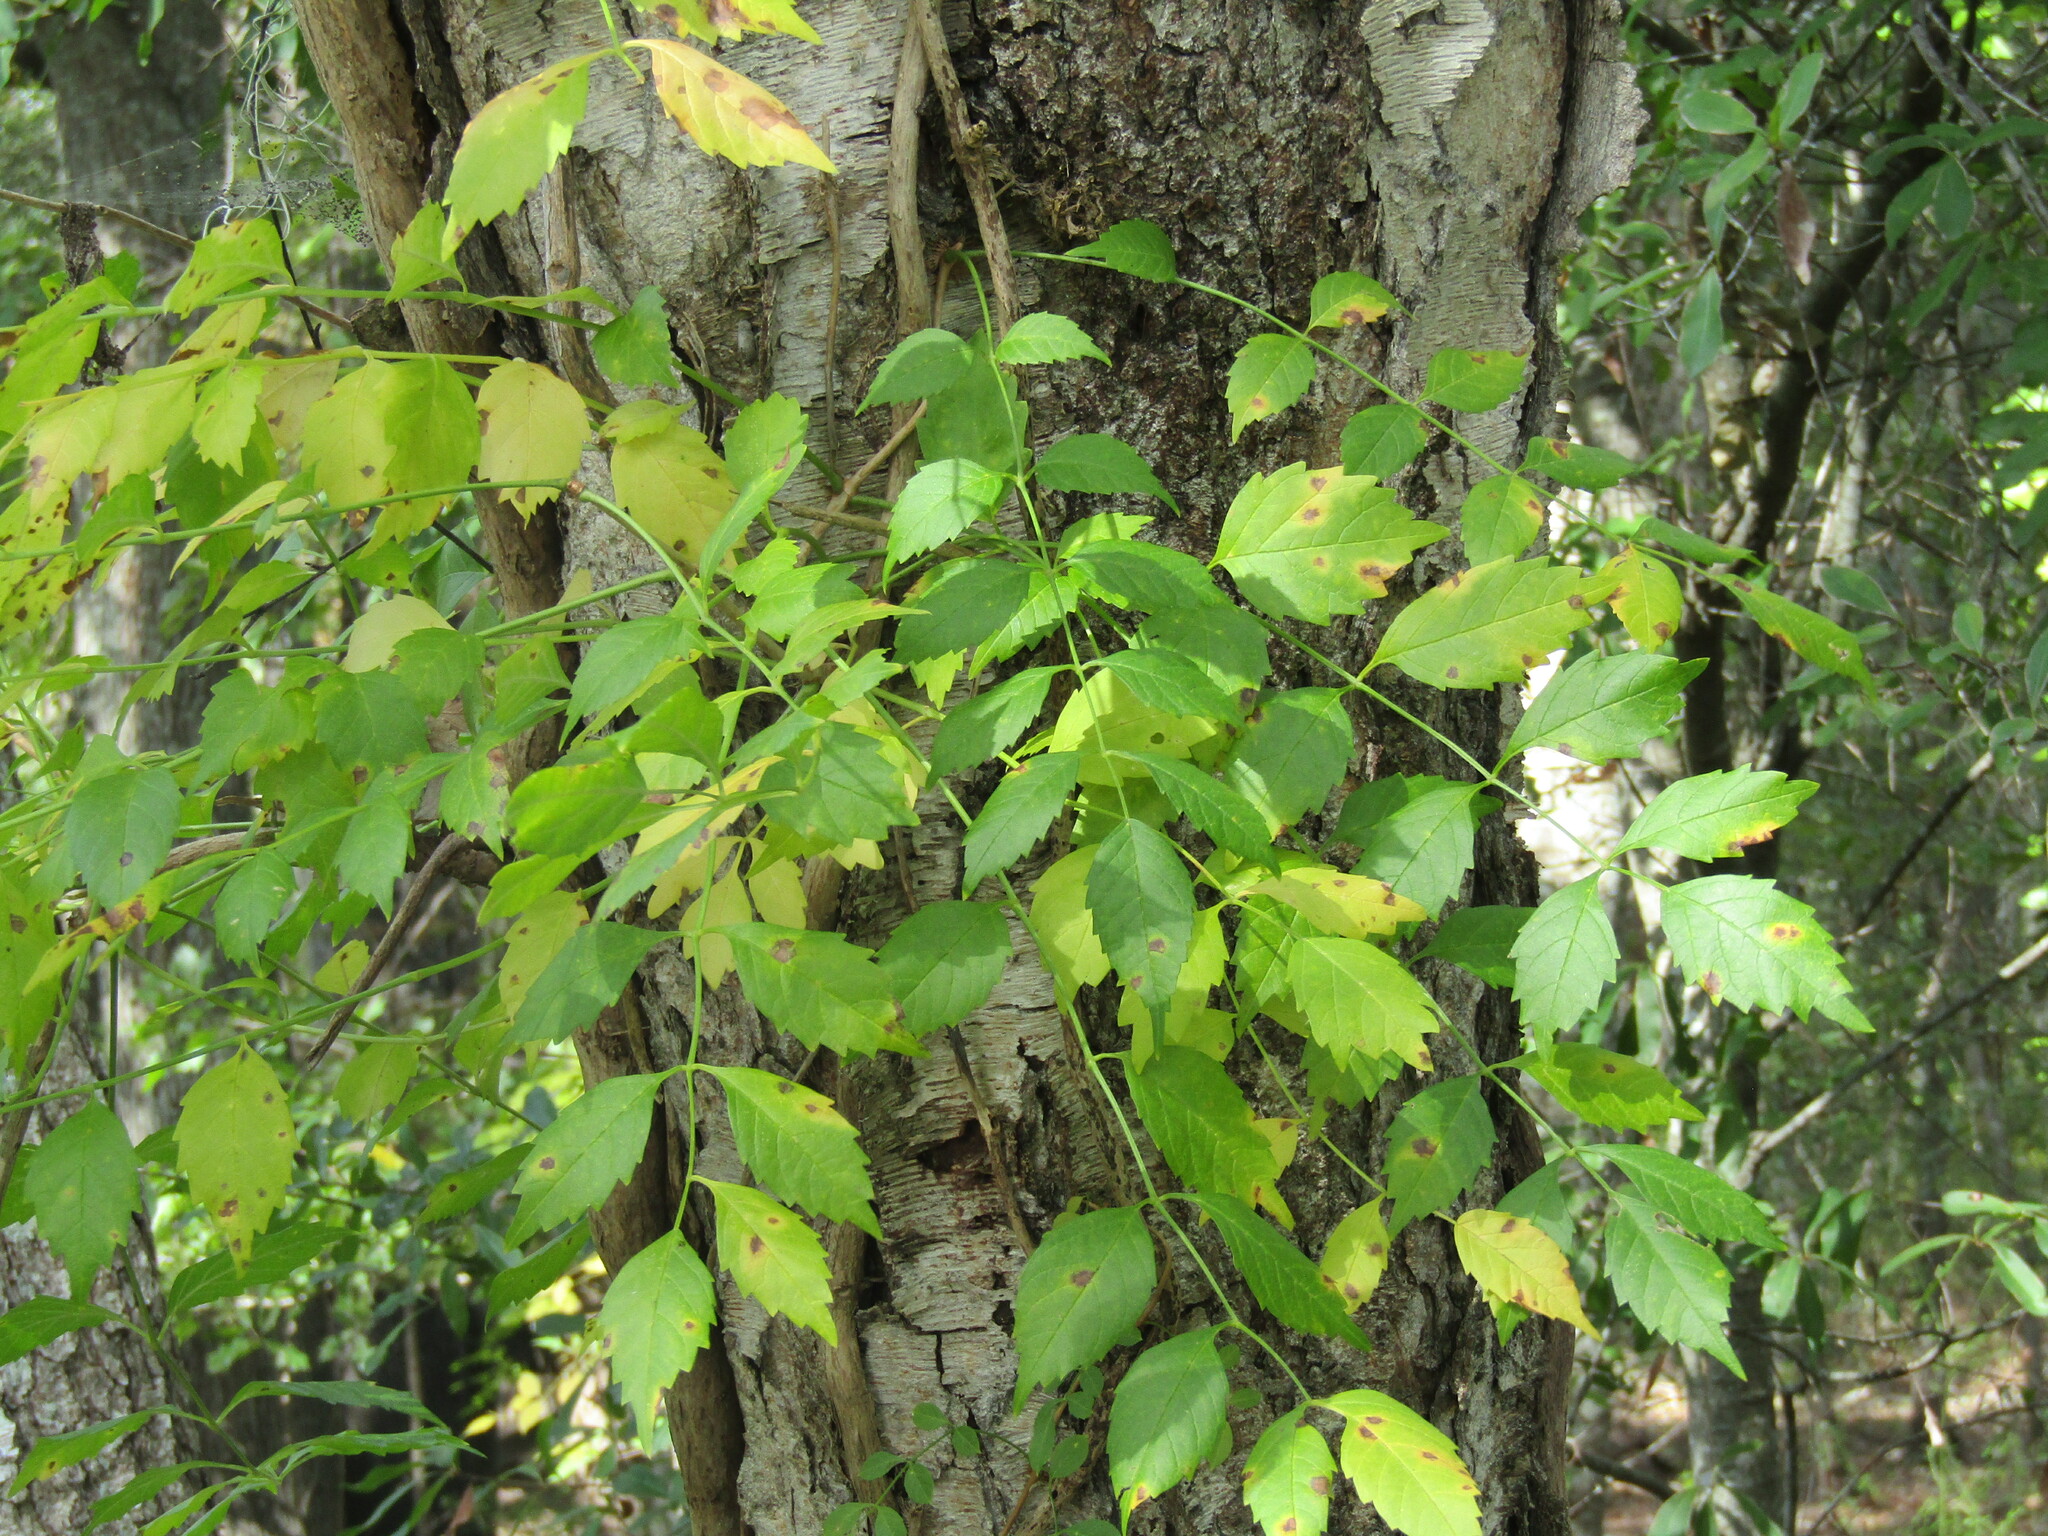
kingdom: Plantae
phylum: Tracheophyta
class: Magnoliopsida
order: Lamiales
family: Bignoniaceae
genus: Campsis
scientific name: Campsis radicans
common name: Trumpet-creeper
